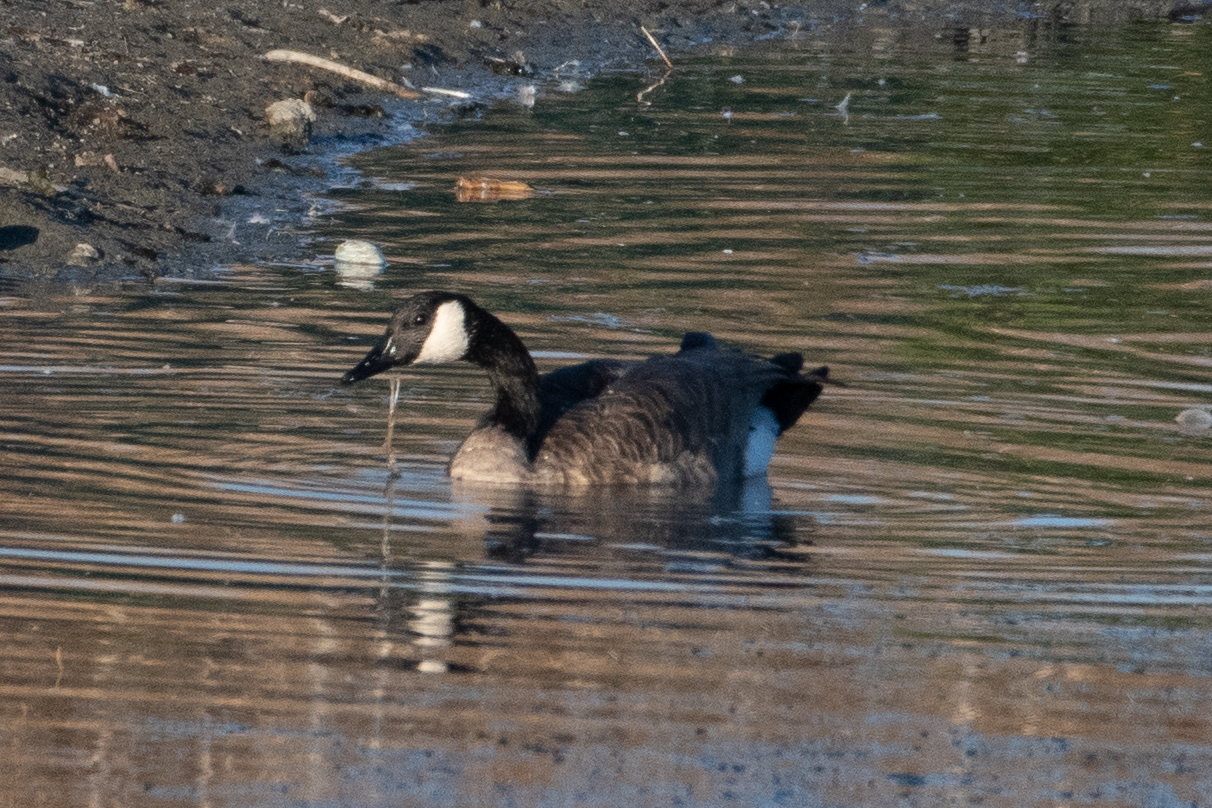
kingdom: Animalia
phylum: Chordata
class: Aves
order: Anseriformes
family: Anatidae
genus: Branta
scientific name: Branta canadensis
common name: Canada goose
